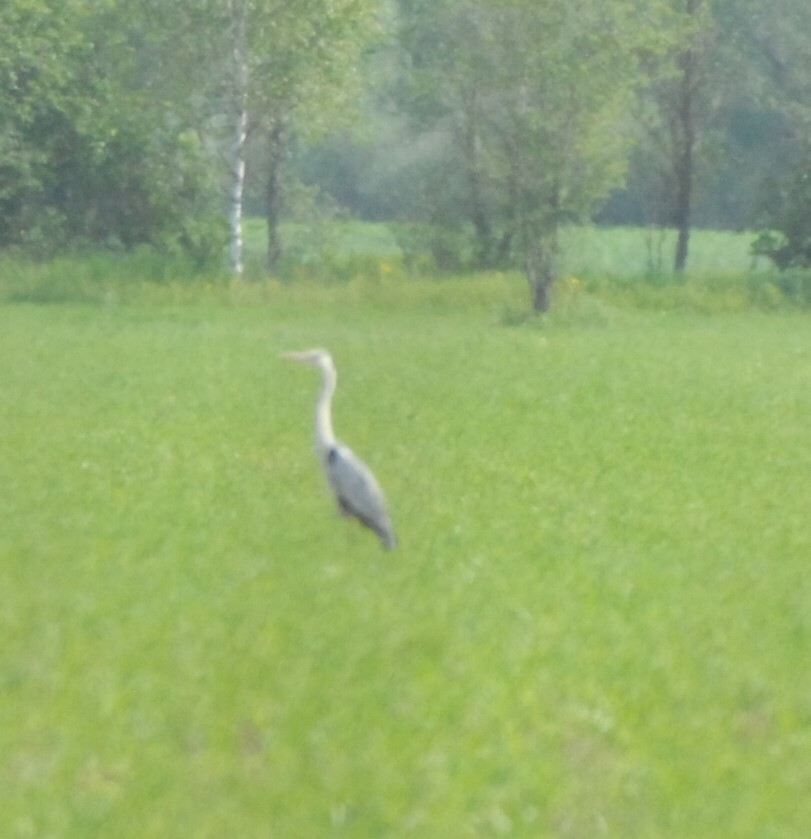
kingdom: Animalia
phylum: Chordata
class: Aves
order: Pelecaniformes
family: Ardeidae
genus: Ardea
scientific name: Ardea cinerea
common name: Grey heron
